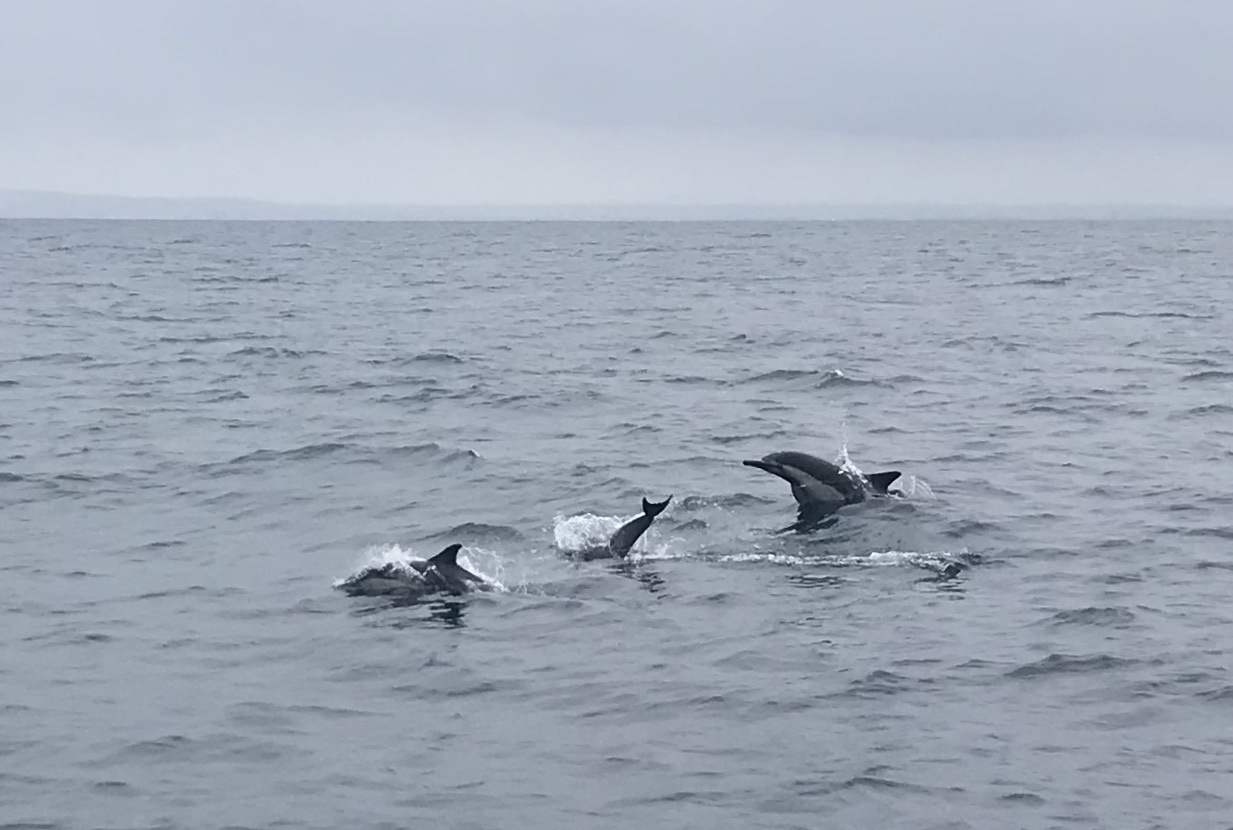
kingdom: Animalia
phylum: Chordata
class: Mammalia
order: Cetacea
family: Delphinidae
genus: Delphinus
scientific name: Delphinus delphis
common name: Common dolphin
